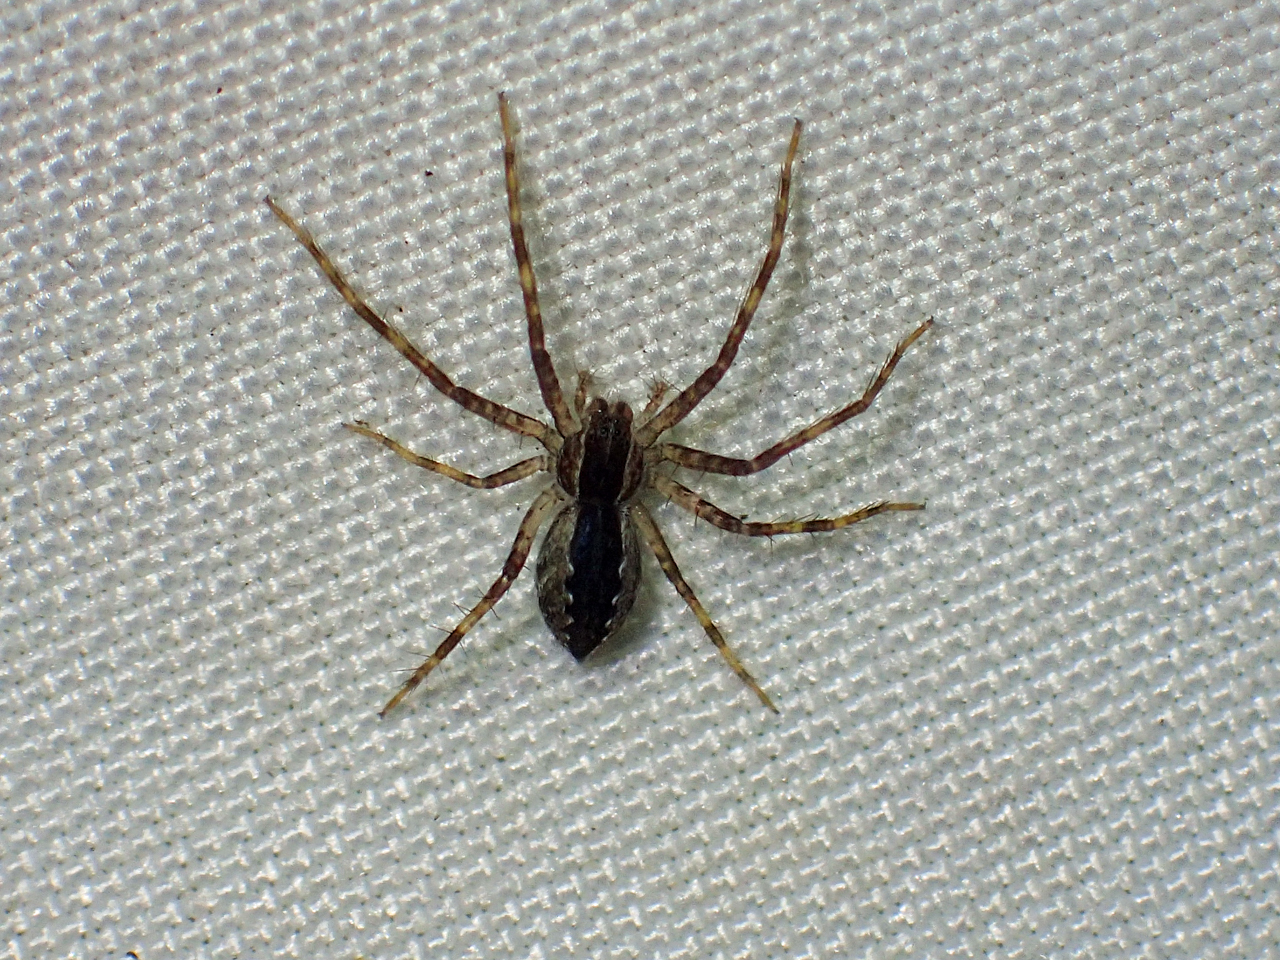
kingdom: Animalia
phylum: Arthropoda
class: Arachnida
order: Araneae
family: Pisauridae
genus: Pisaurina
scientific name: Pisaurina mira
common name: American nursery web spider
